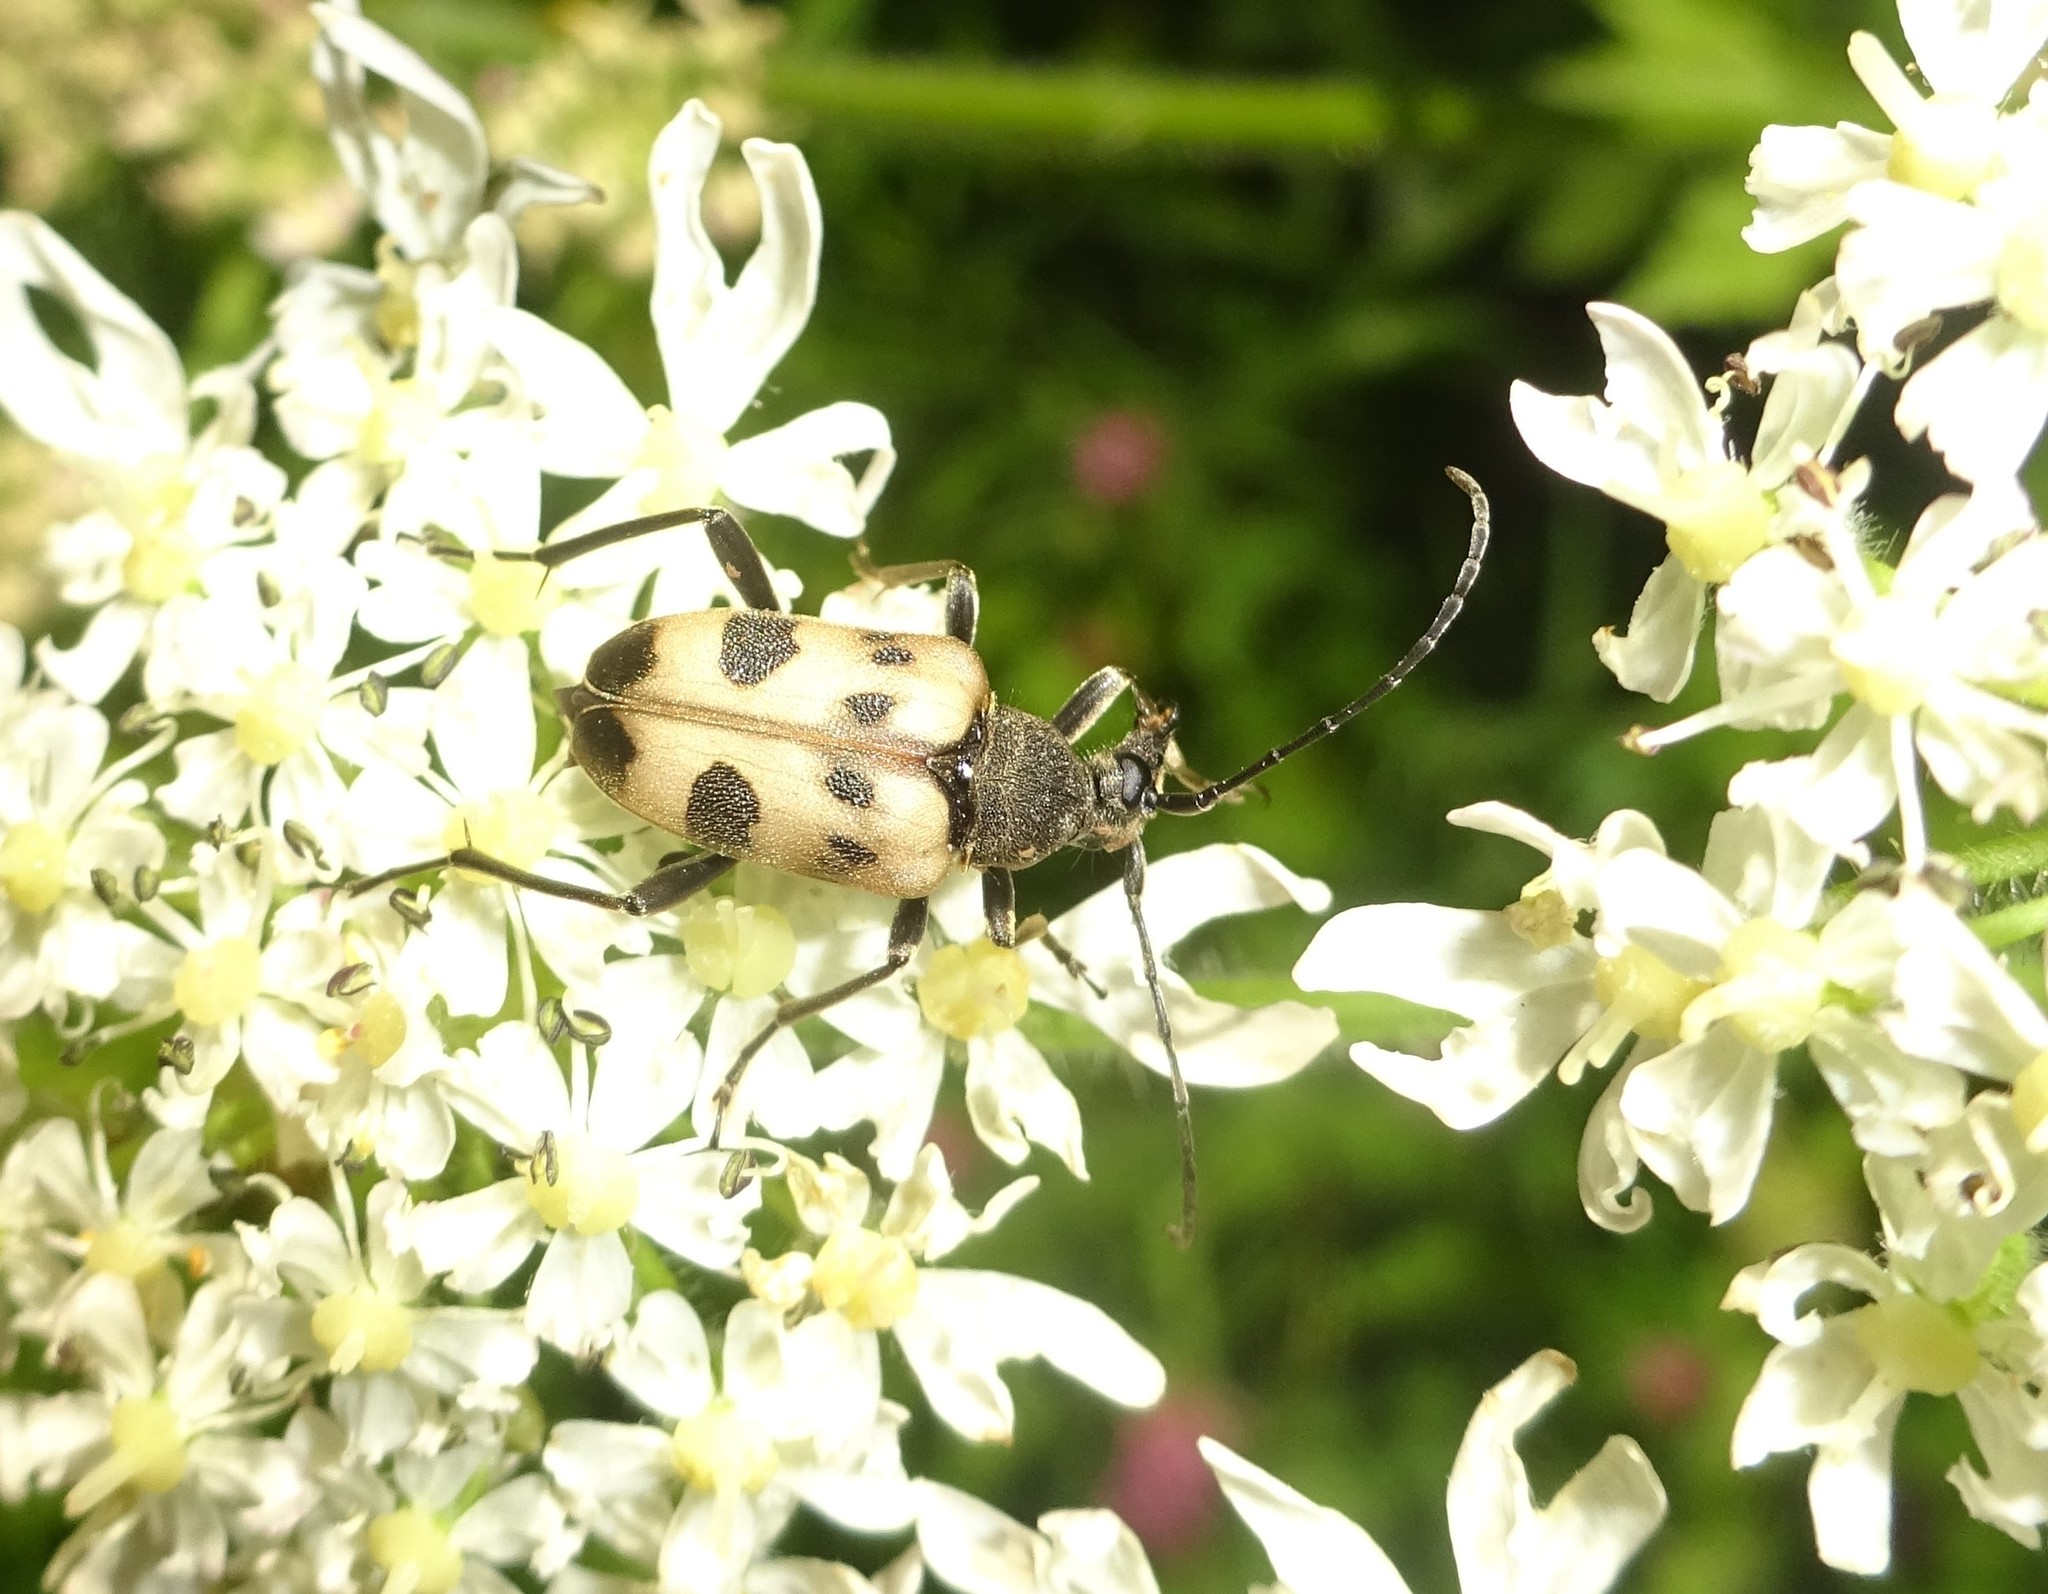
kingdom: Animalia
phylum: Arthropoda
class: Insecta
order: Coleoptera
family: Cerambycidae
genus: Pachytodes
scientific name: Pachytodes cerambyciformis
